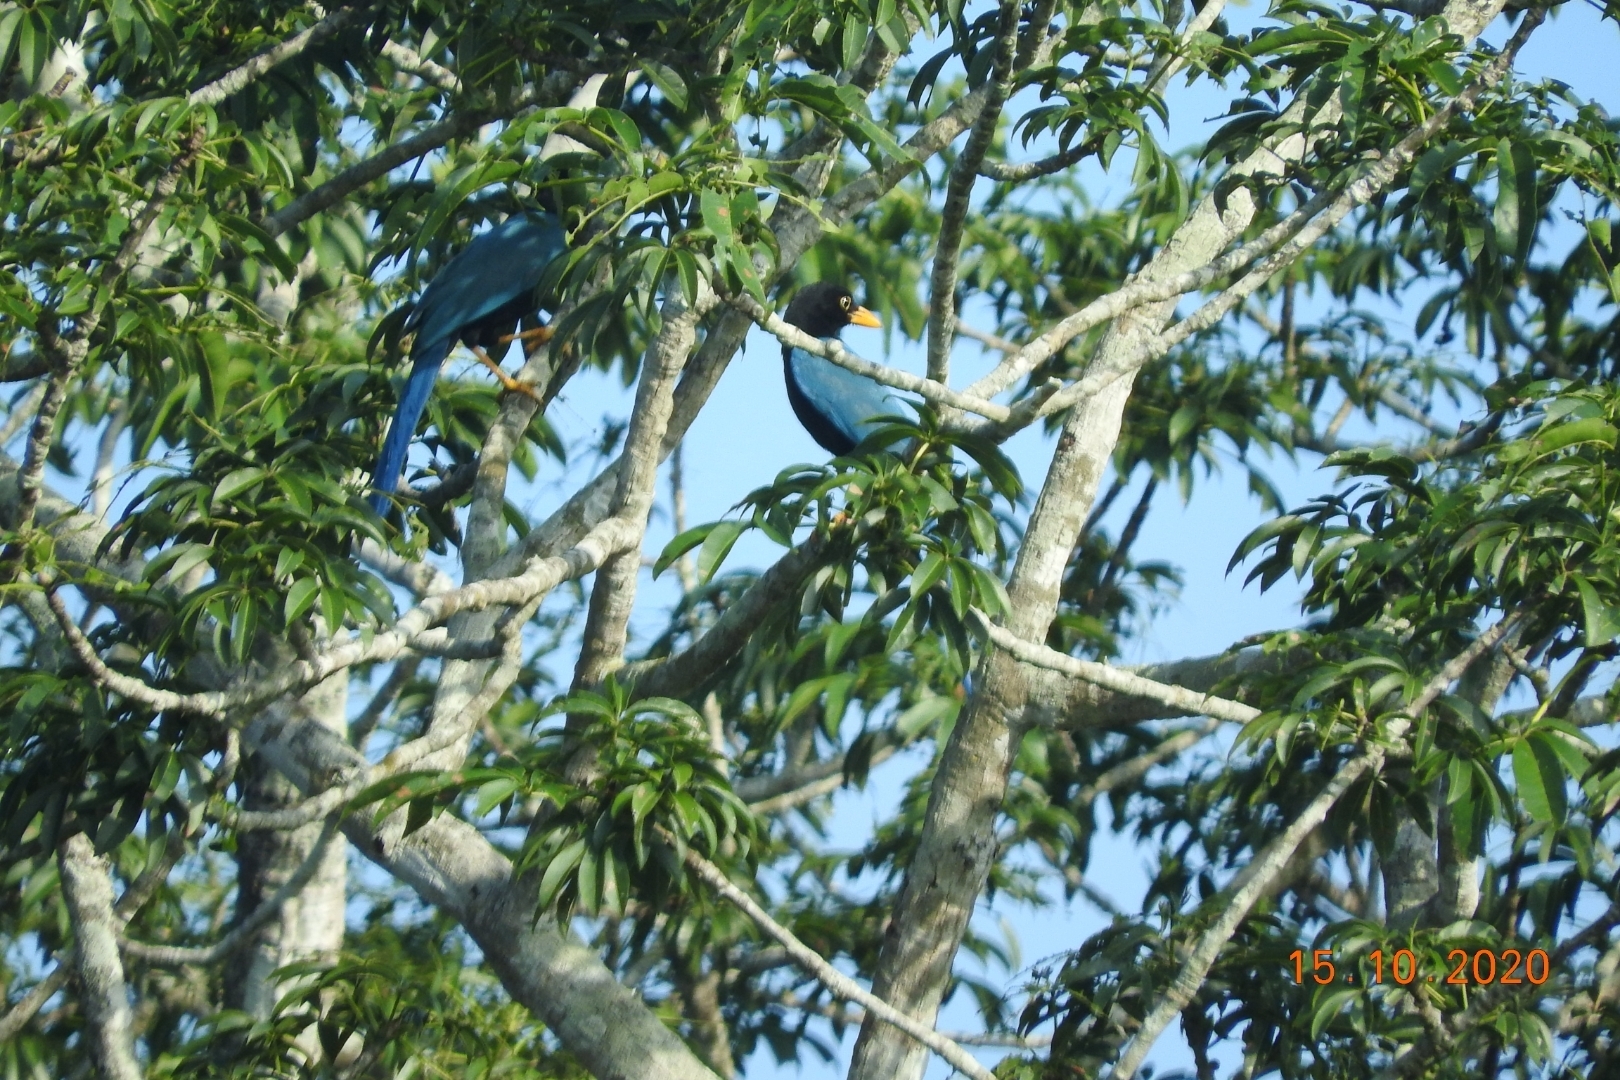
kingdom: Animalia
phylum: Chordata
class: Aves
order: Passeriformes
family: Corvidae
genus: Cyanocorax
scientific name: Cyanocorax yucatanicus
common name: Yucatan jay
